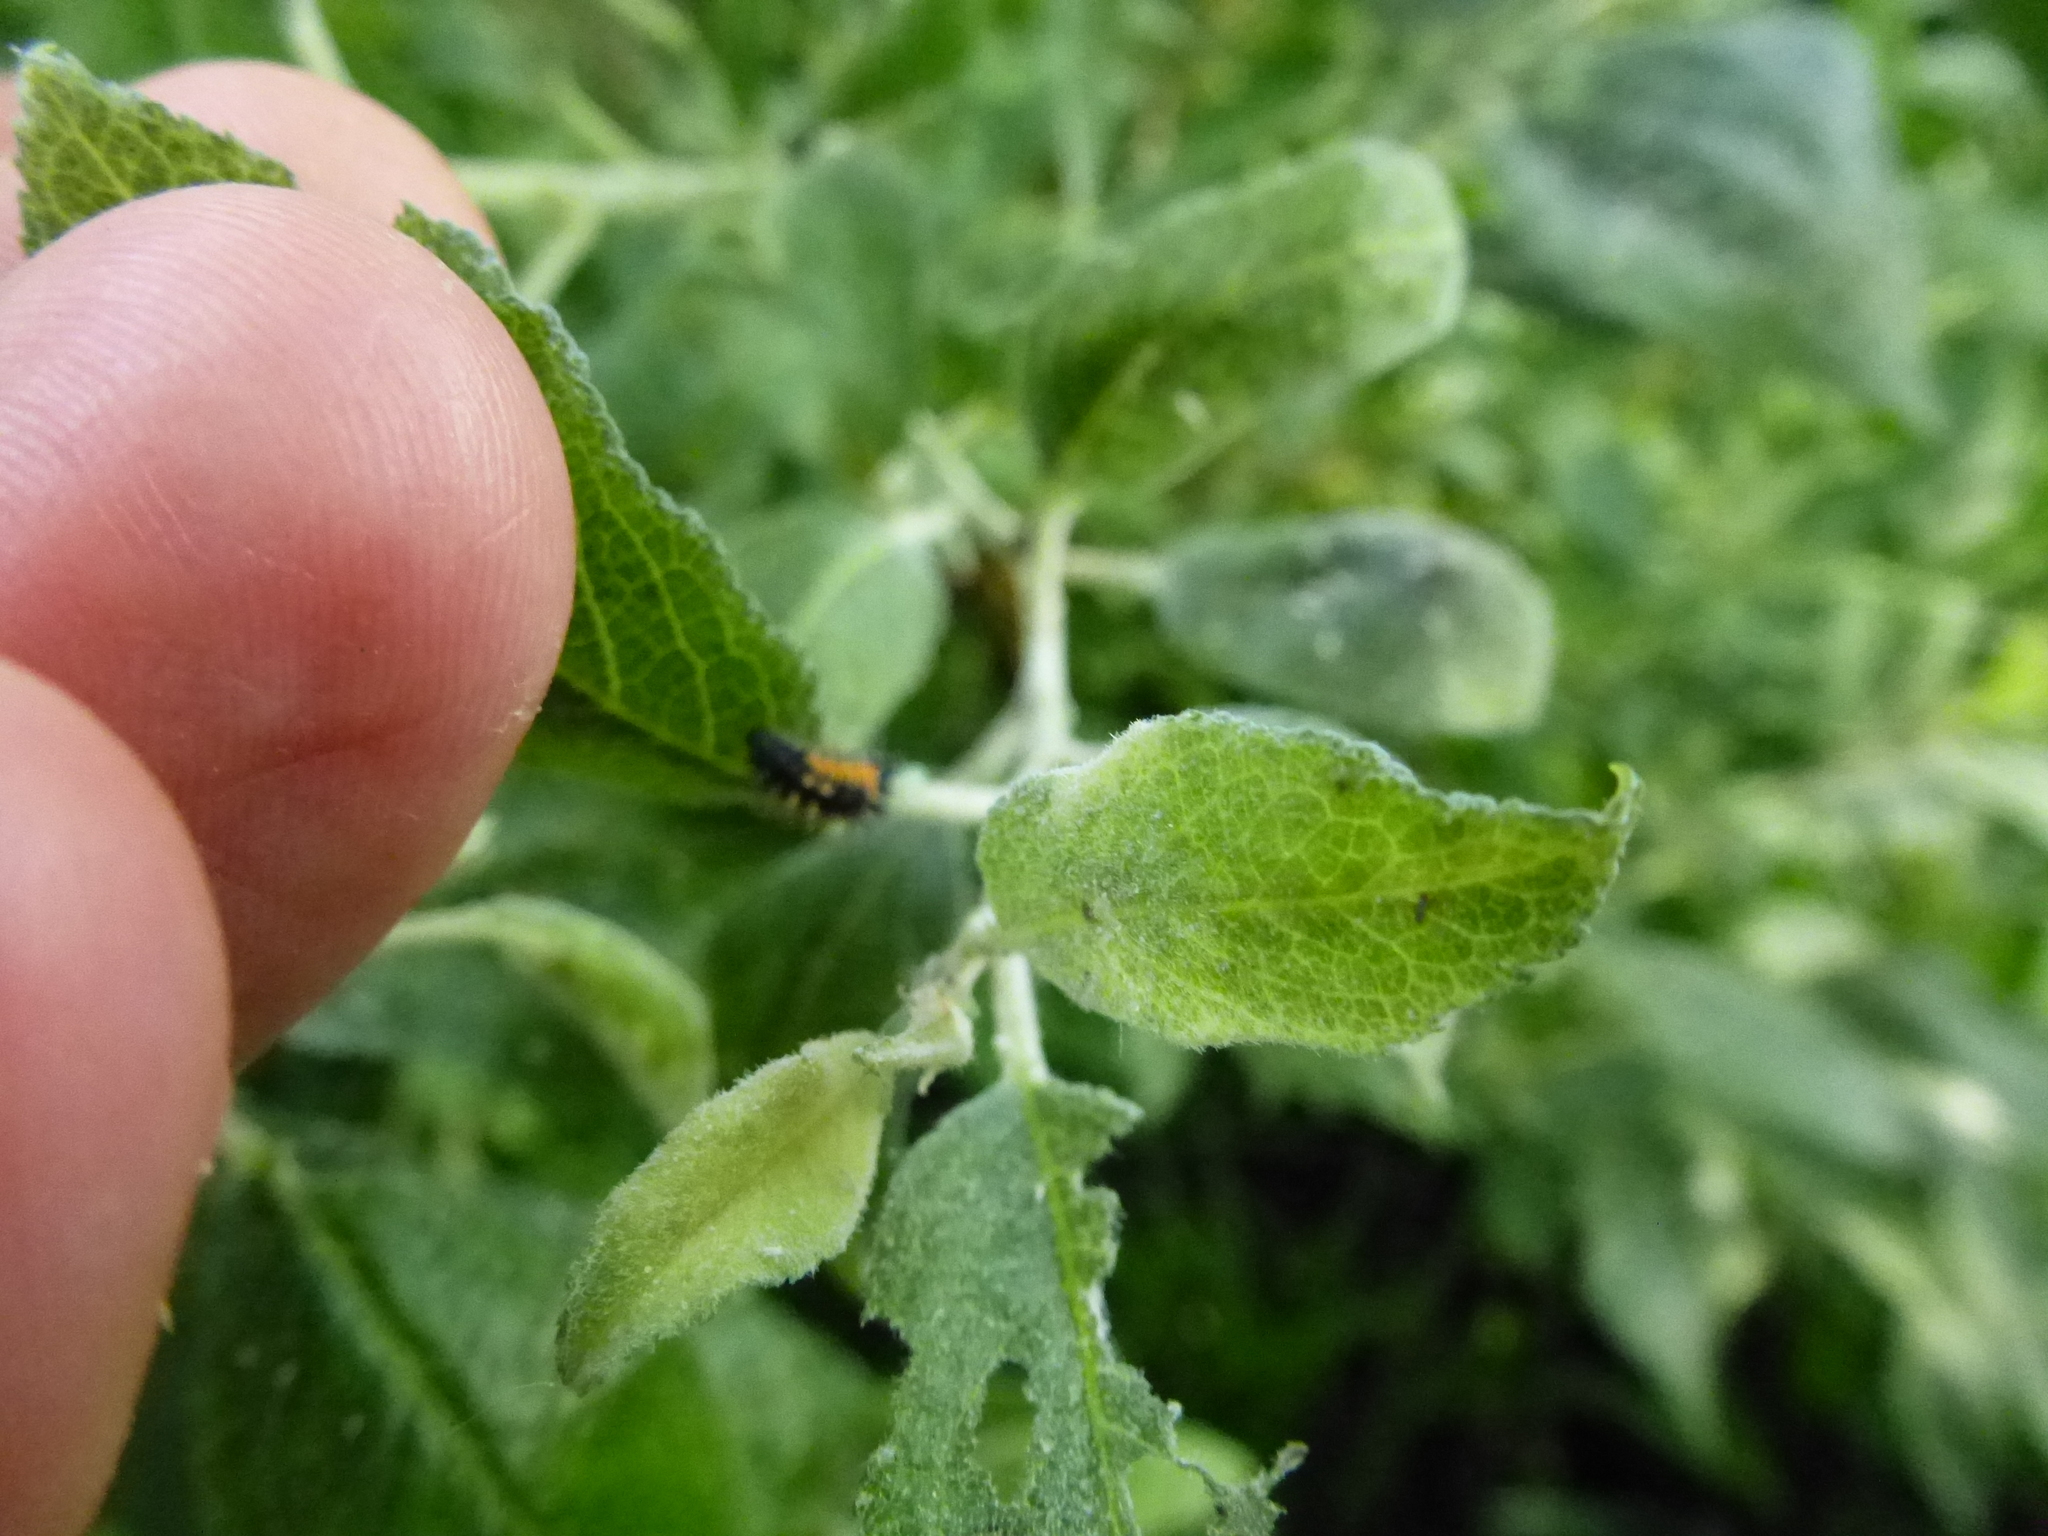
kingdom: Animalia
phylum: Arthropoda
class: Insecta
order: Coleoptera
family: Coccinellidae
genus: Harmonia
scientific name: Harmonia axyridis
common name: Harlequin ladybird
